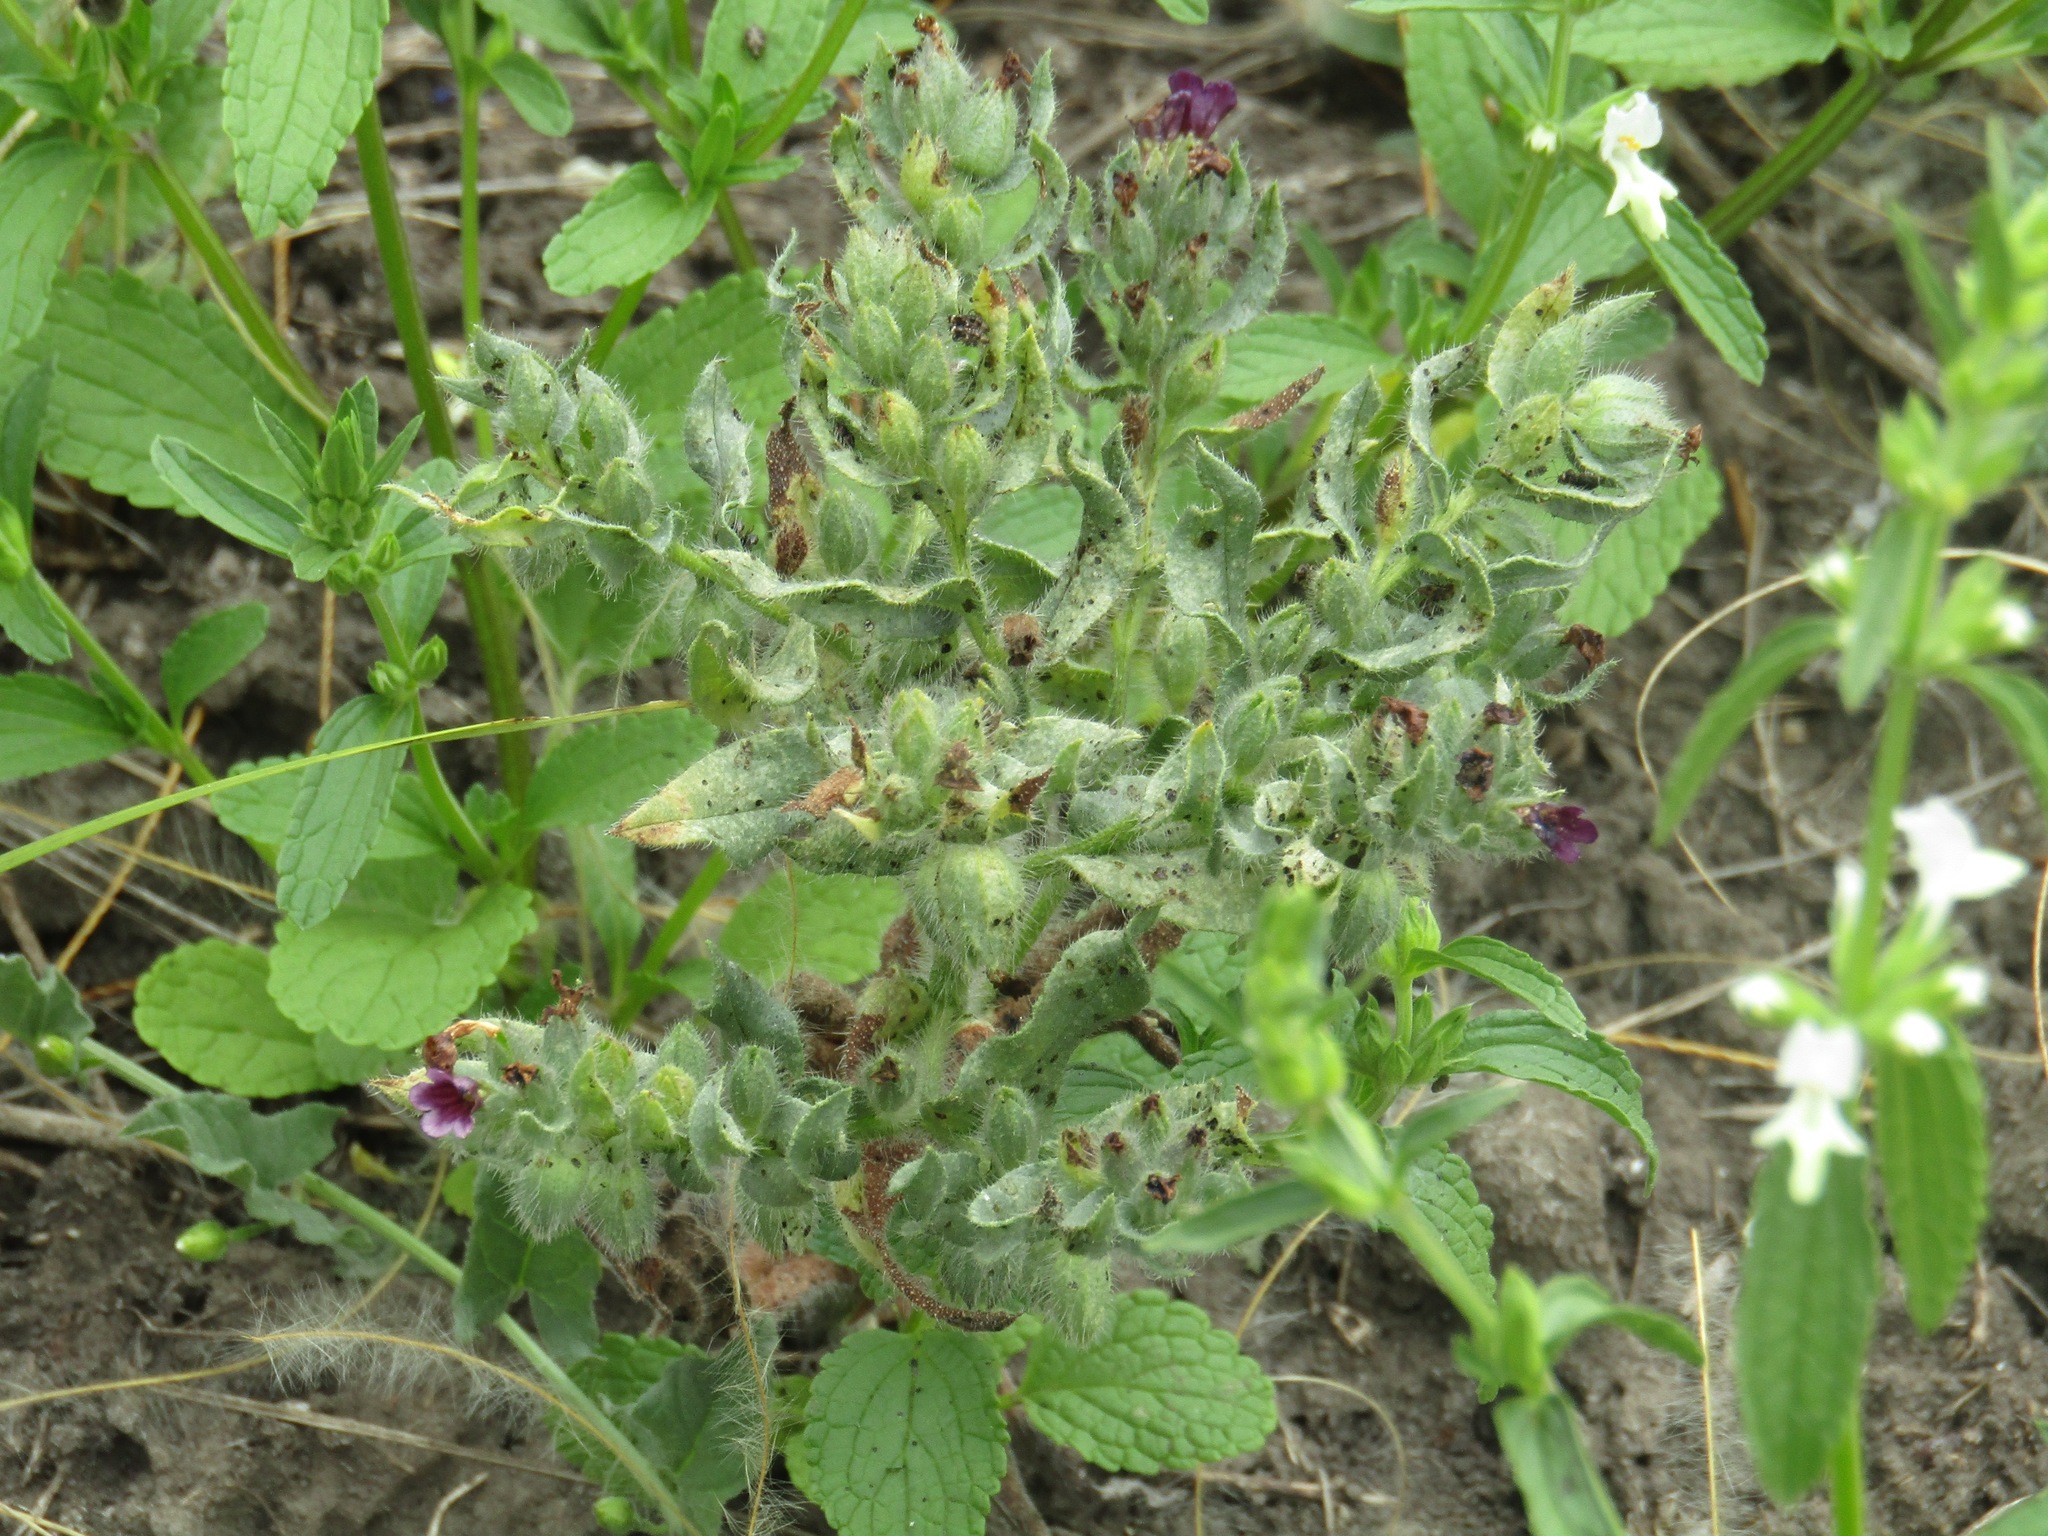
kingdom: Plantae
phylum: Tracheophyta
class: Magnoliopsida
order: Boraginales
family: Boraginaceae
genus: Nonea
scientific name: Nonea pulla
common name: Brown nonea
